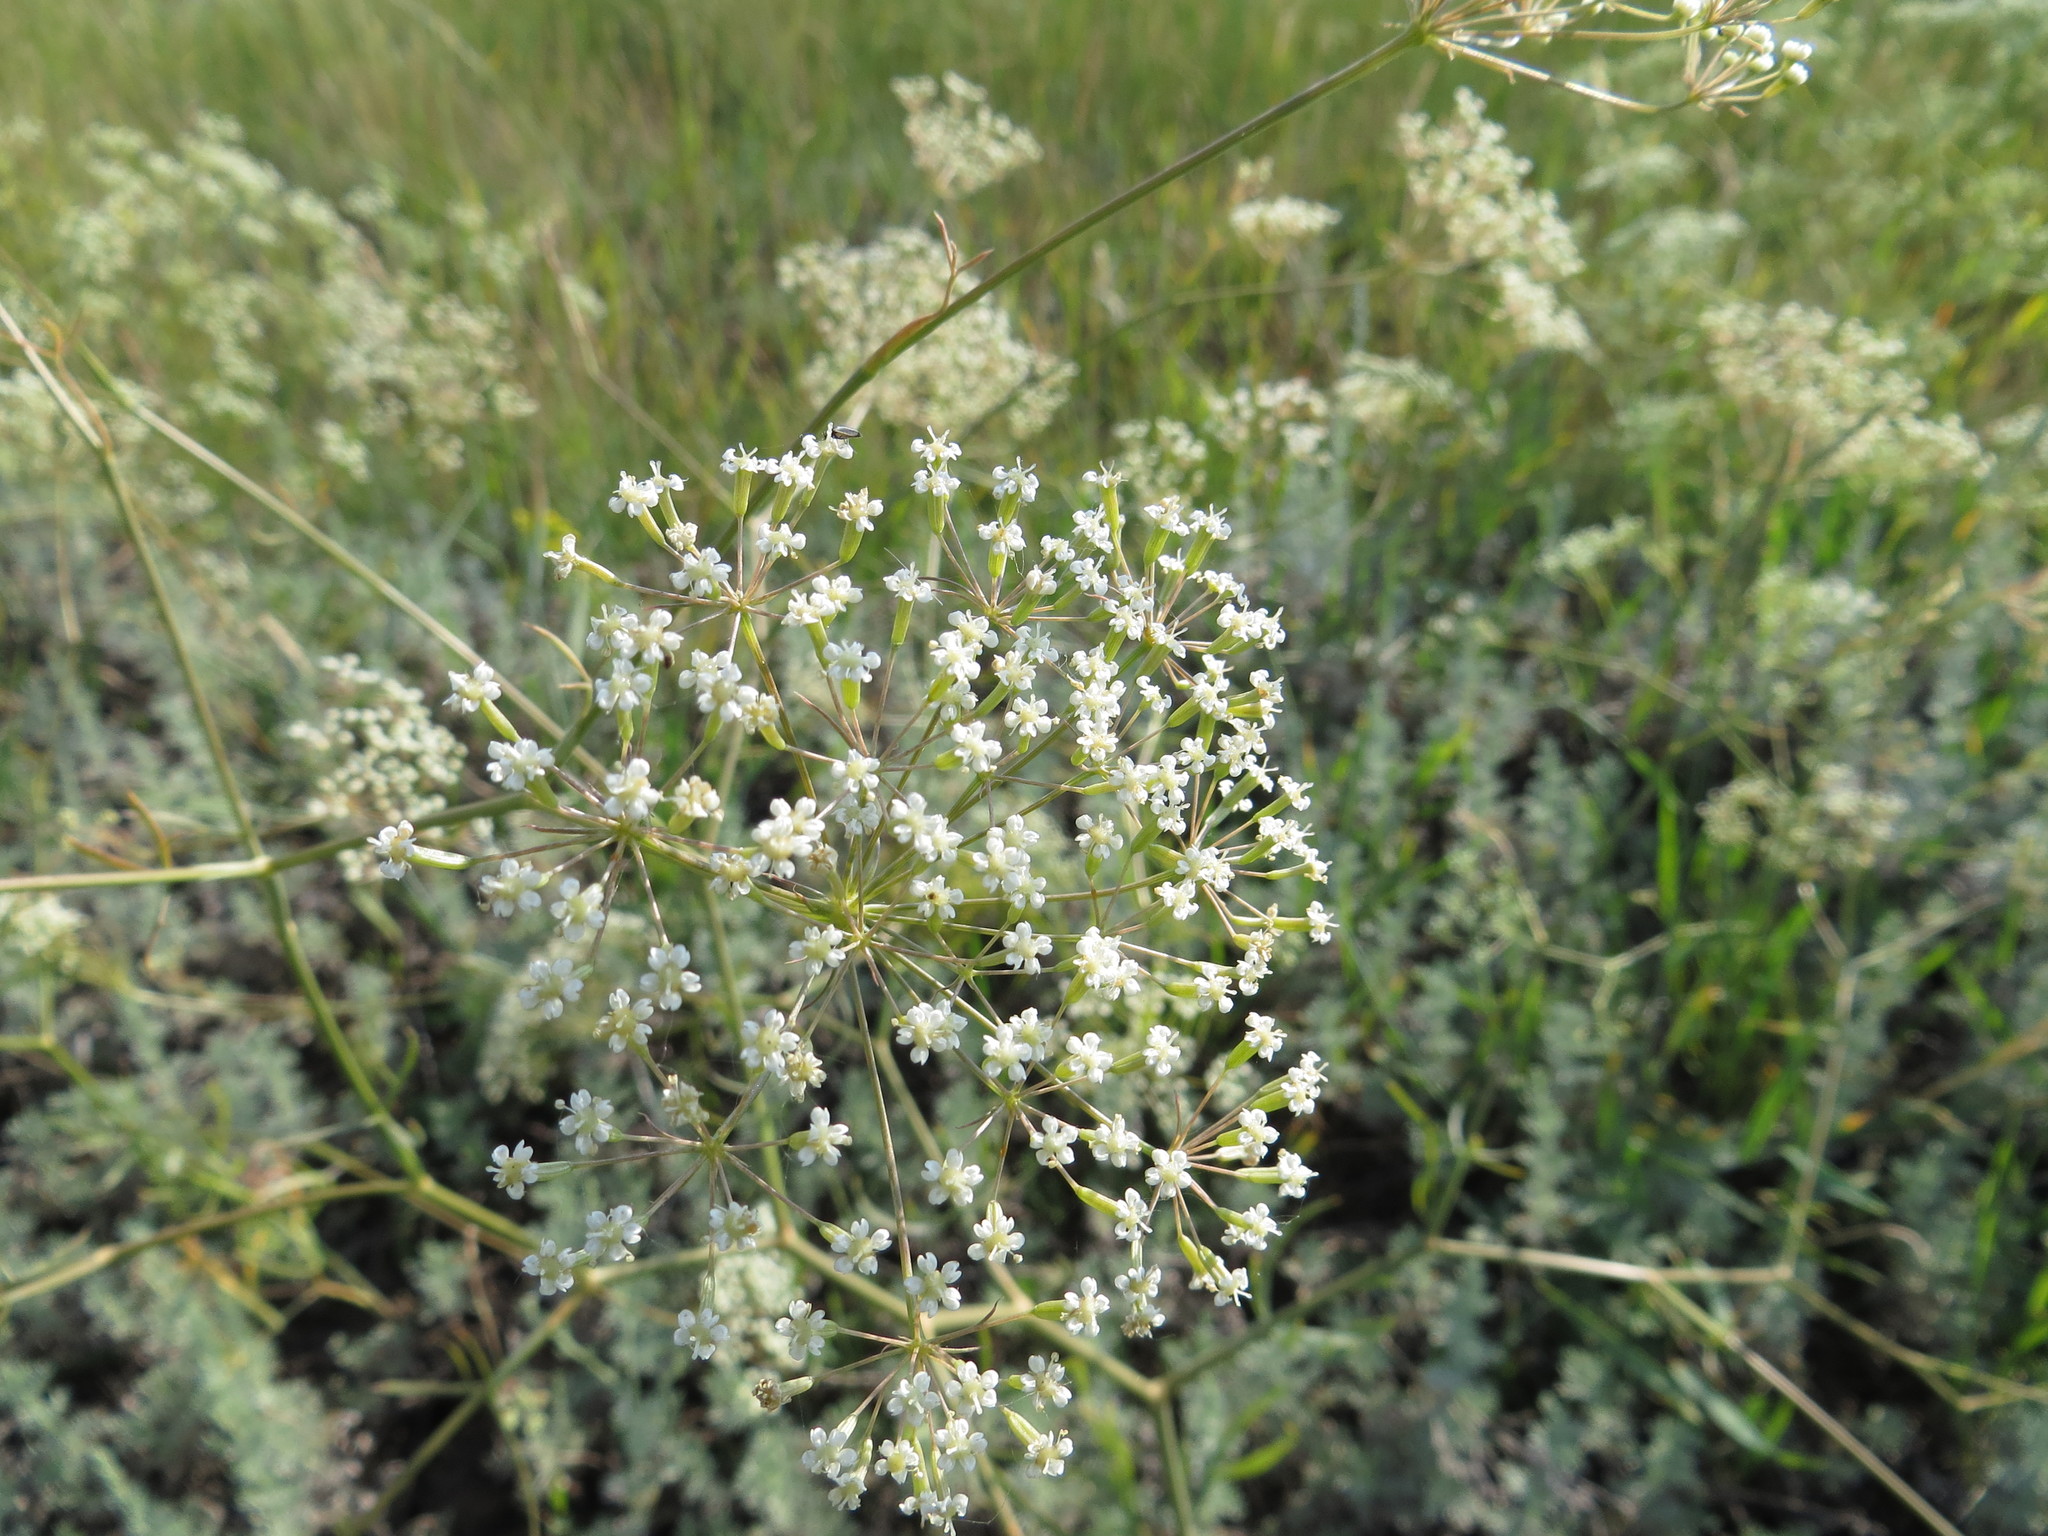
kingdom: Plantae
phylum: Tracheophyta
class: Magnoliopsida
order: Apiales
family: Apiaceae
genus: Falcaria
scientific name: Falcaria vulgaris
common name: Longleaf
